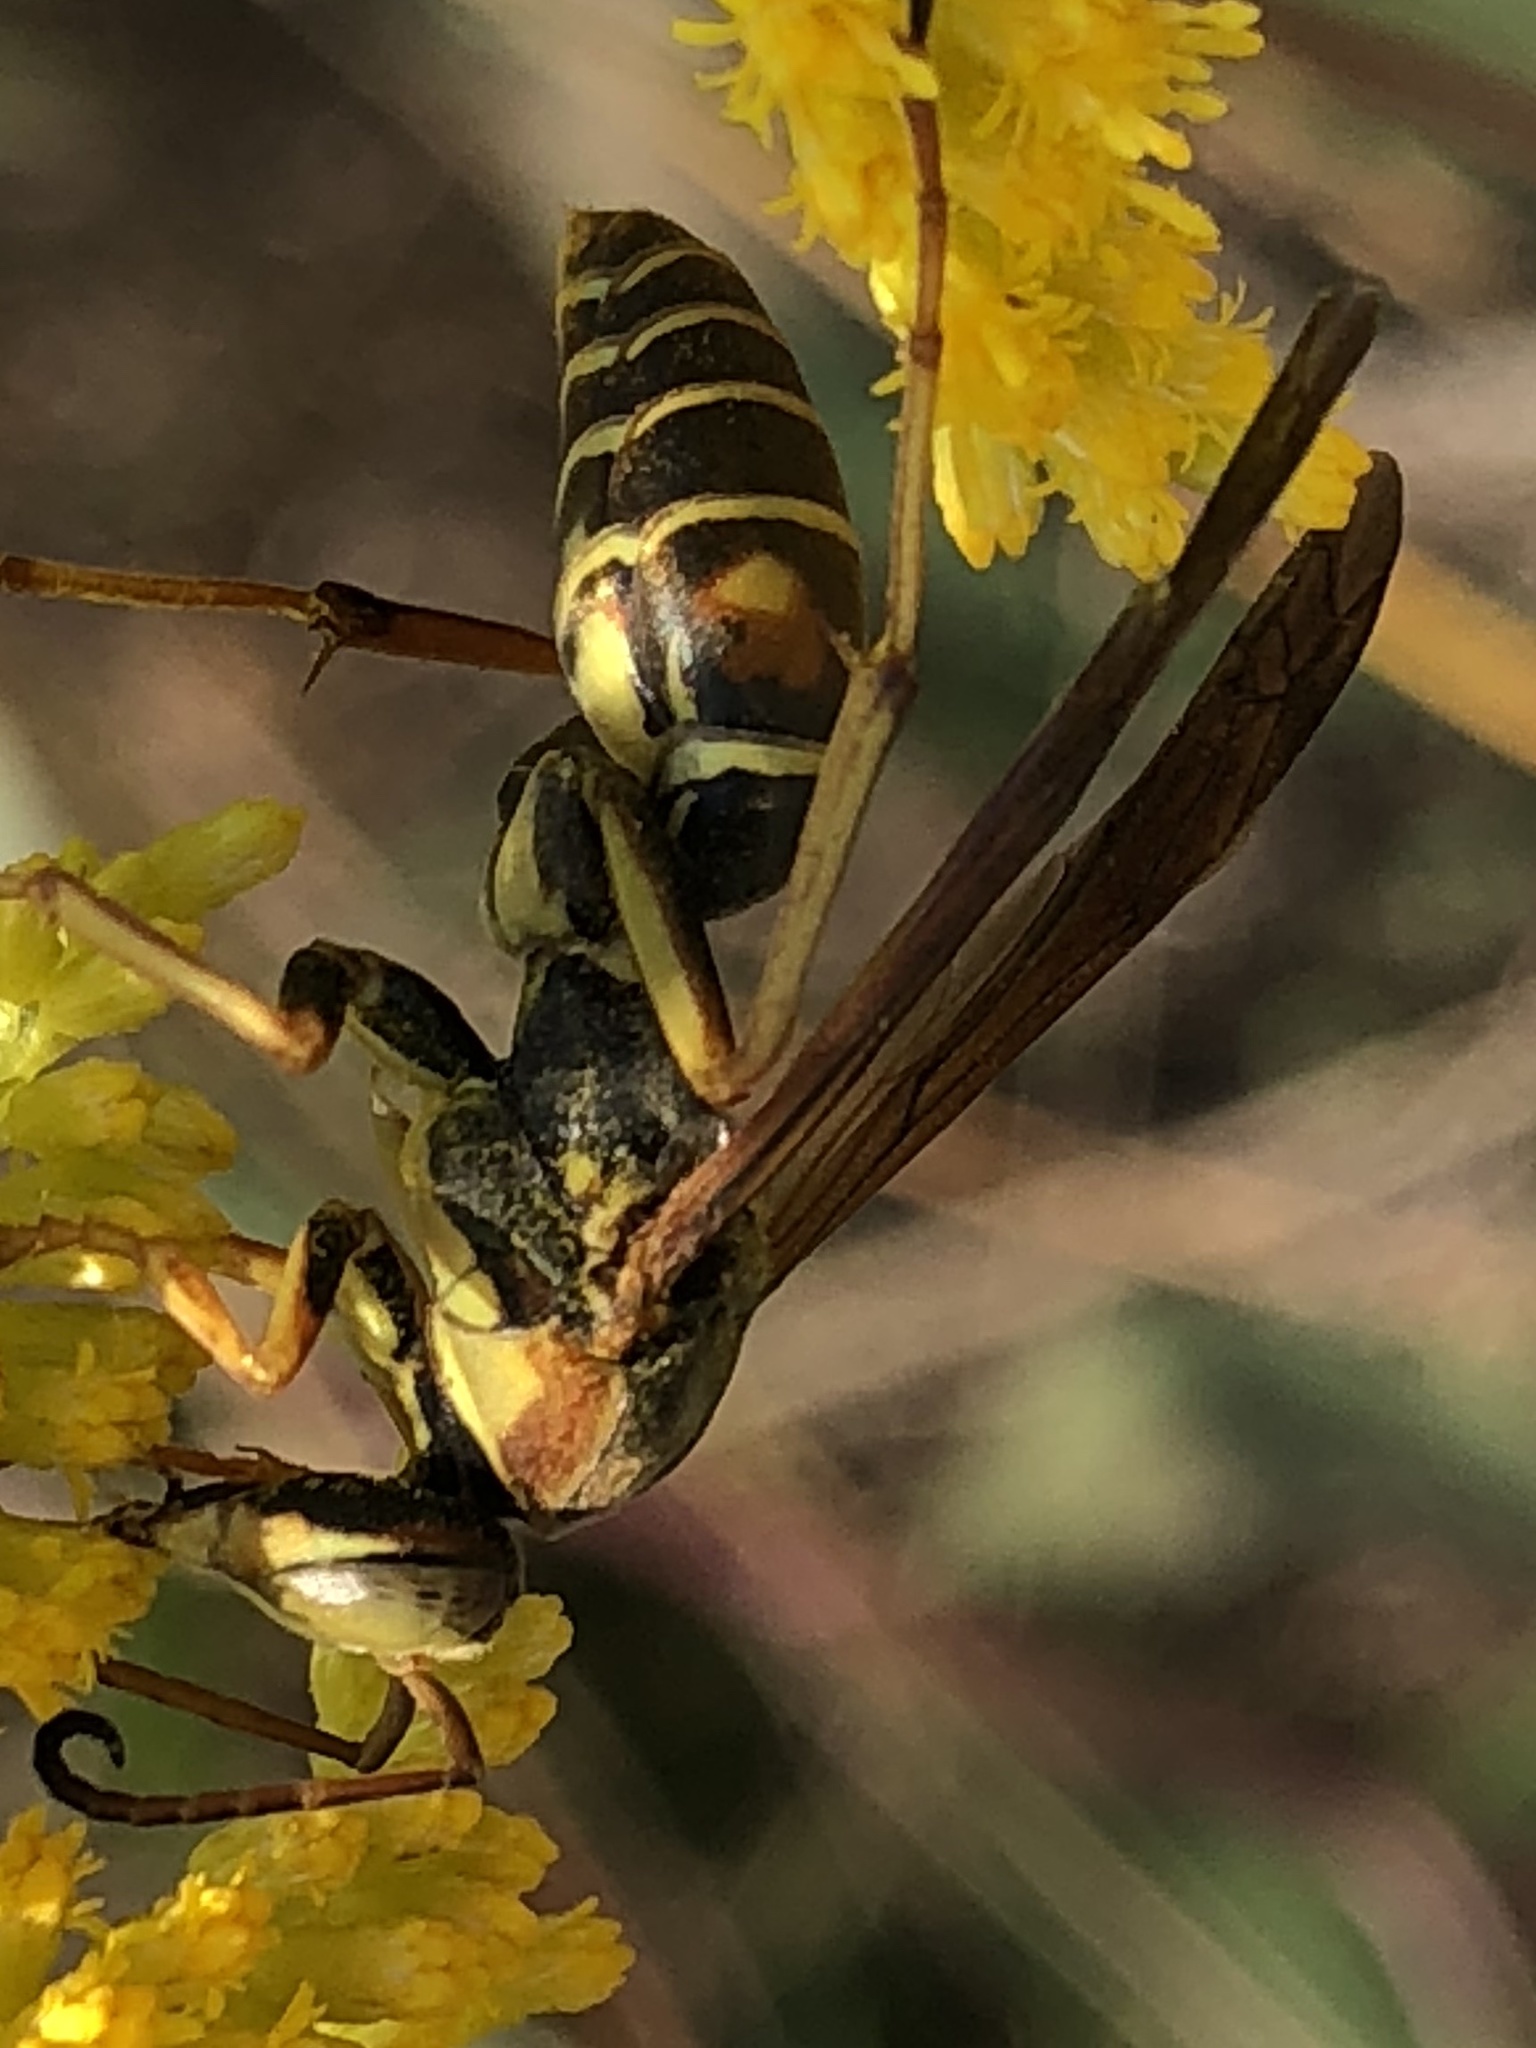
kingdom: Animalia
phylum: Arthropoda
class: Insecta
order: Hymenoptera
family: Eumenidae
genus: Polistes
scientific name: Polistes fuscatus
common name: Dark paper wasp
